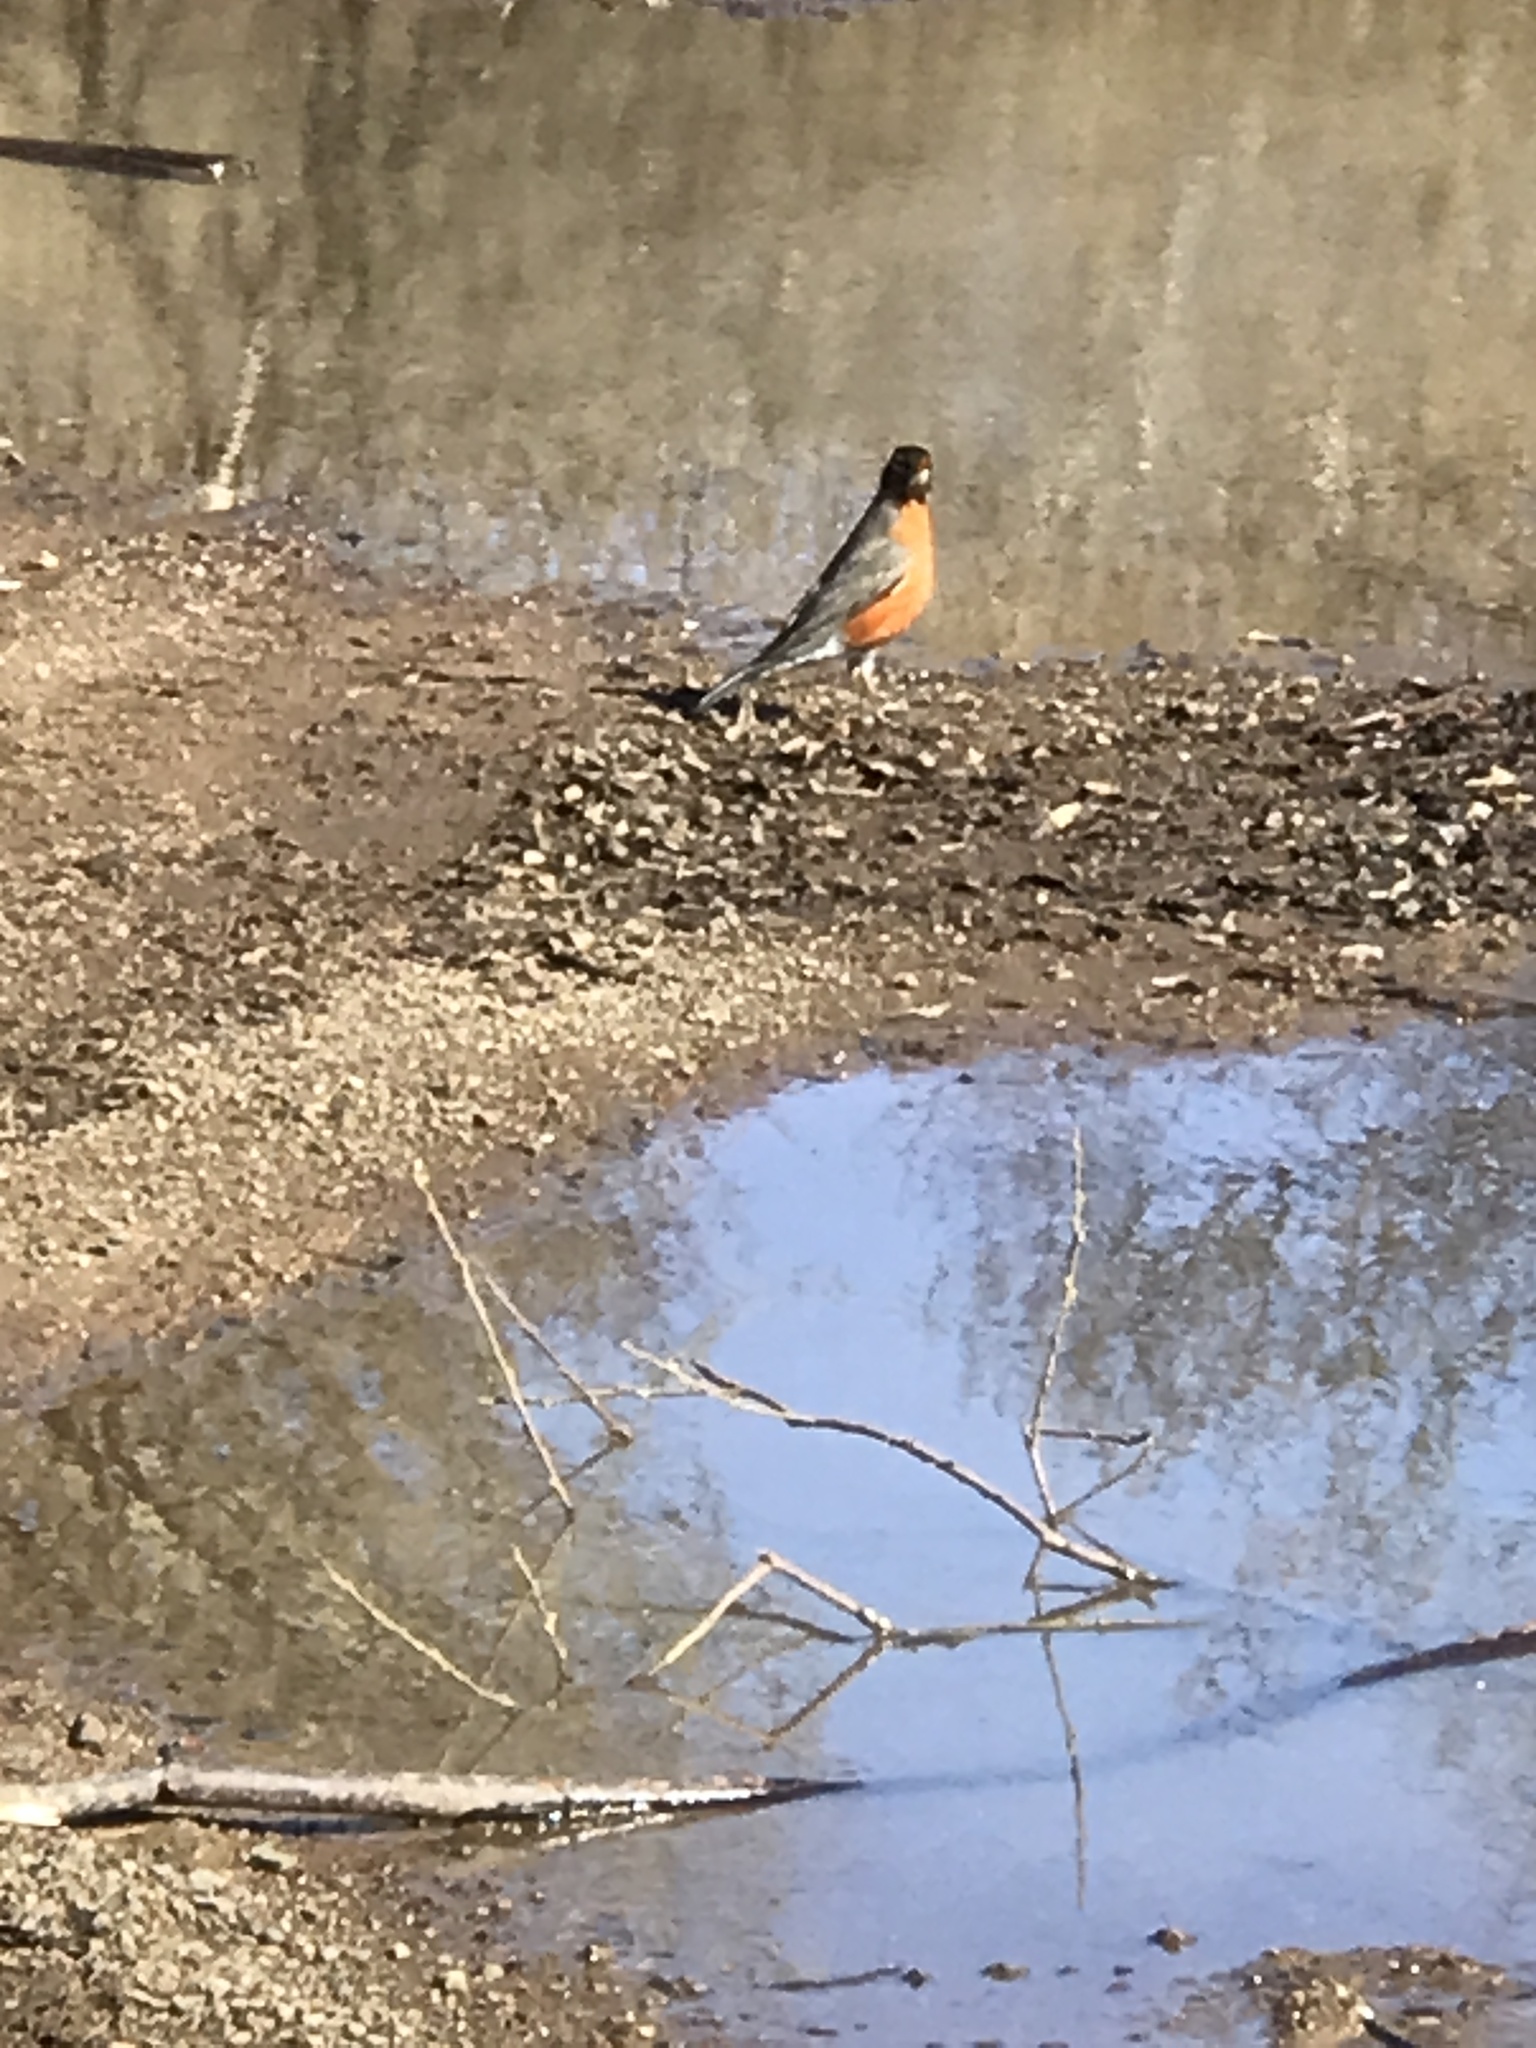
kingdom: Animalia
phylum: Chordata
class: Aves
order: Passeriformes
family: Turdidae
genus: Turdus
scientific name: Turdus migratorius
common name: American robin
